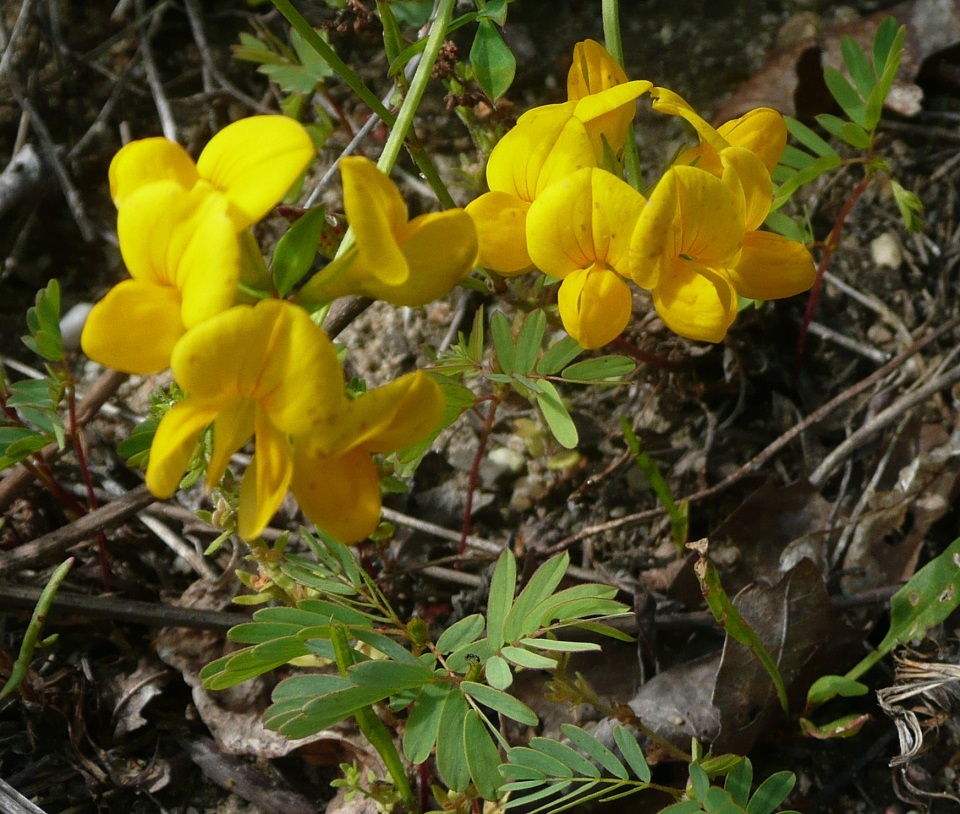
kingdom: Plantae
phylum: Tracheophyta
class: Magnoliopsida
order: Fabales
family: Fabaceae
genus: Lotus
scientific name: Lotus corniculatus
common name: Common bird's-foot-trefoil
